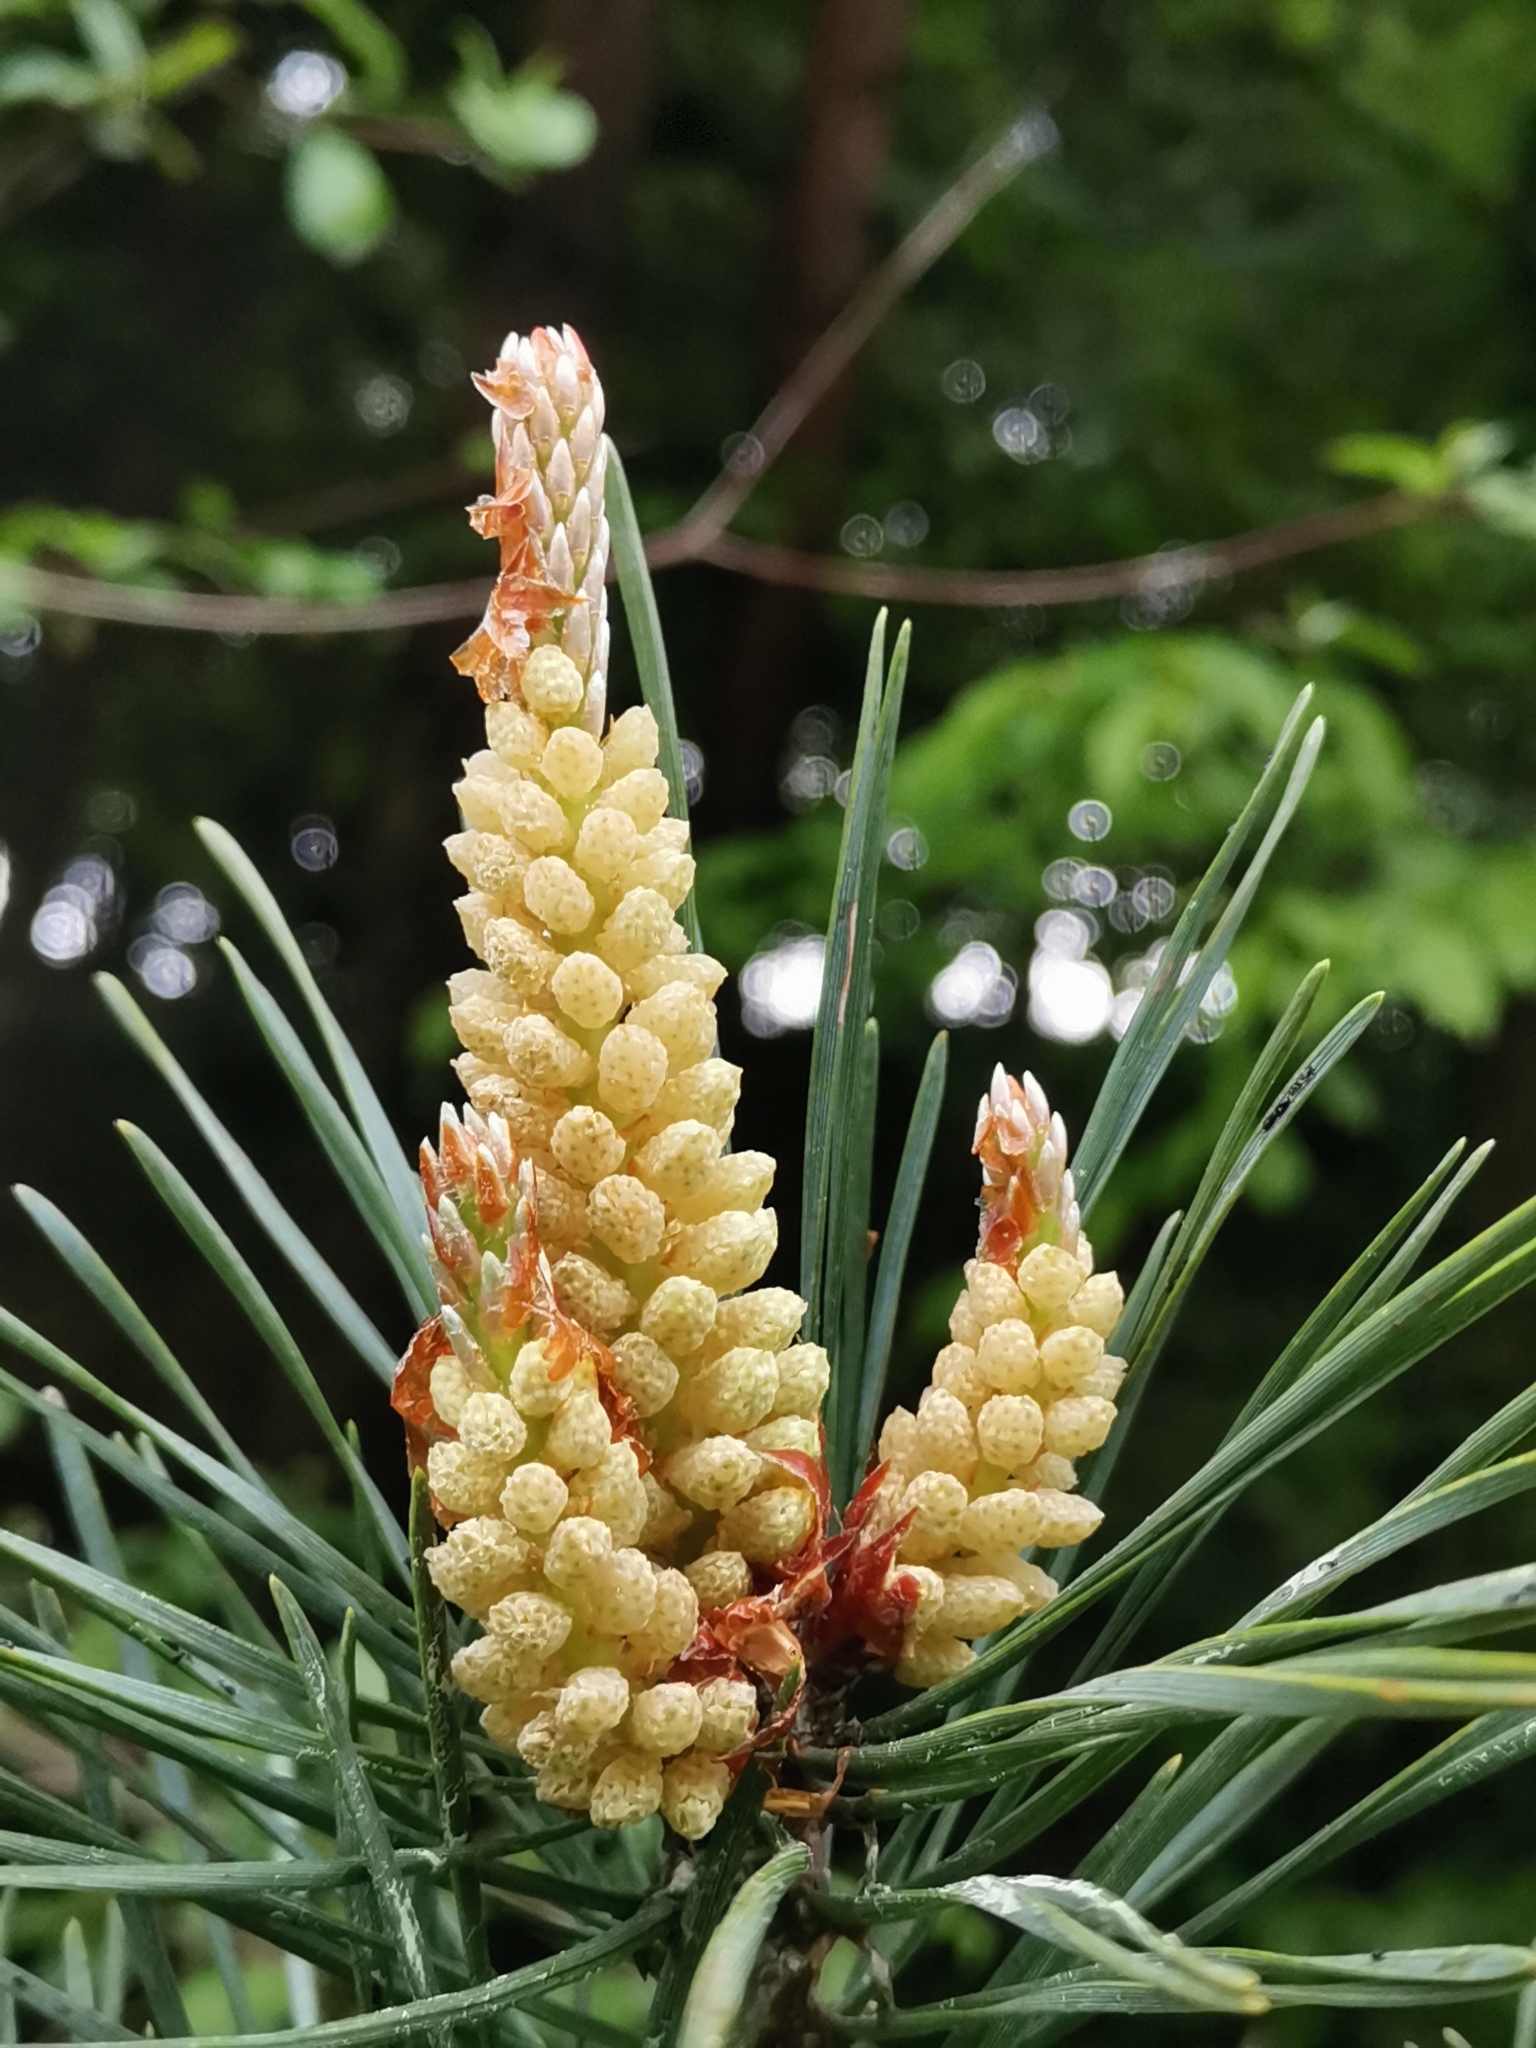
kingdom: Plantae
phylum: Tracheophyta
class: Pinopsida
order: Pinales
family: Pinaceae
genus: Pinus
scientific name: Pinus sylvestris
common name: Scots pine
